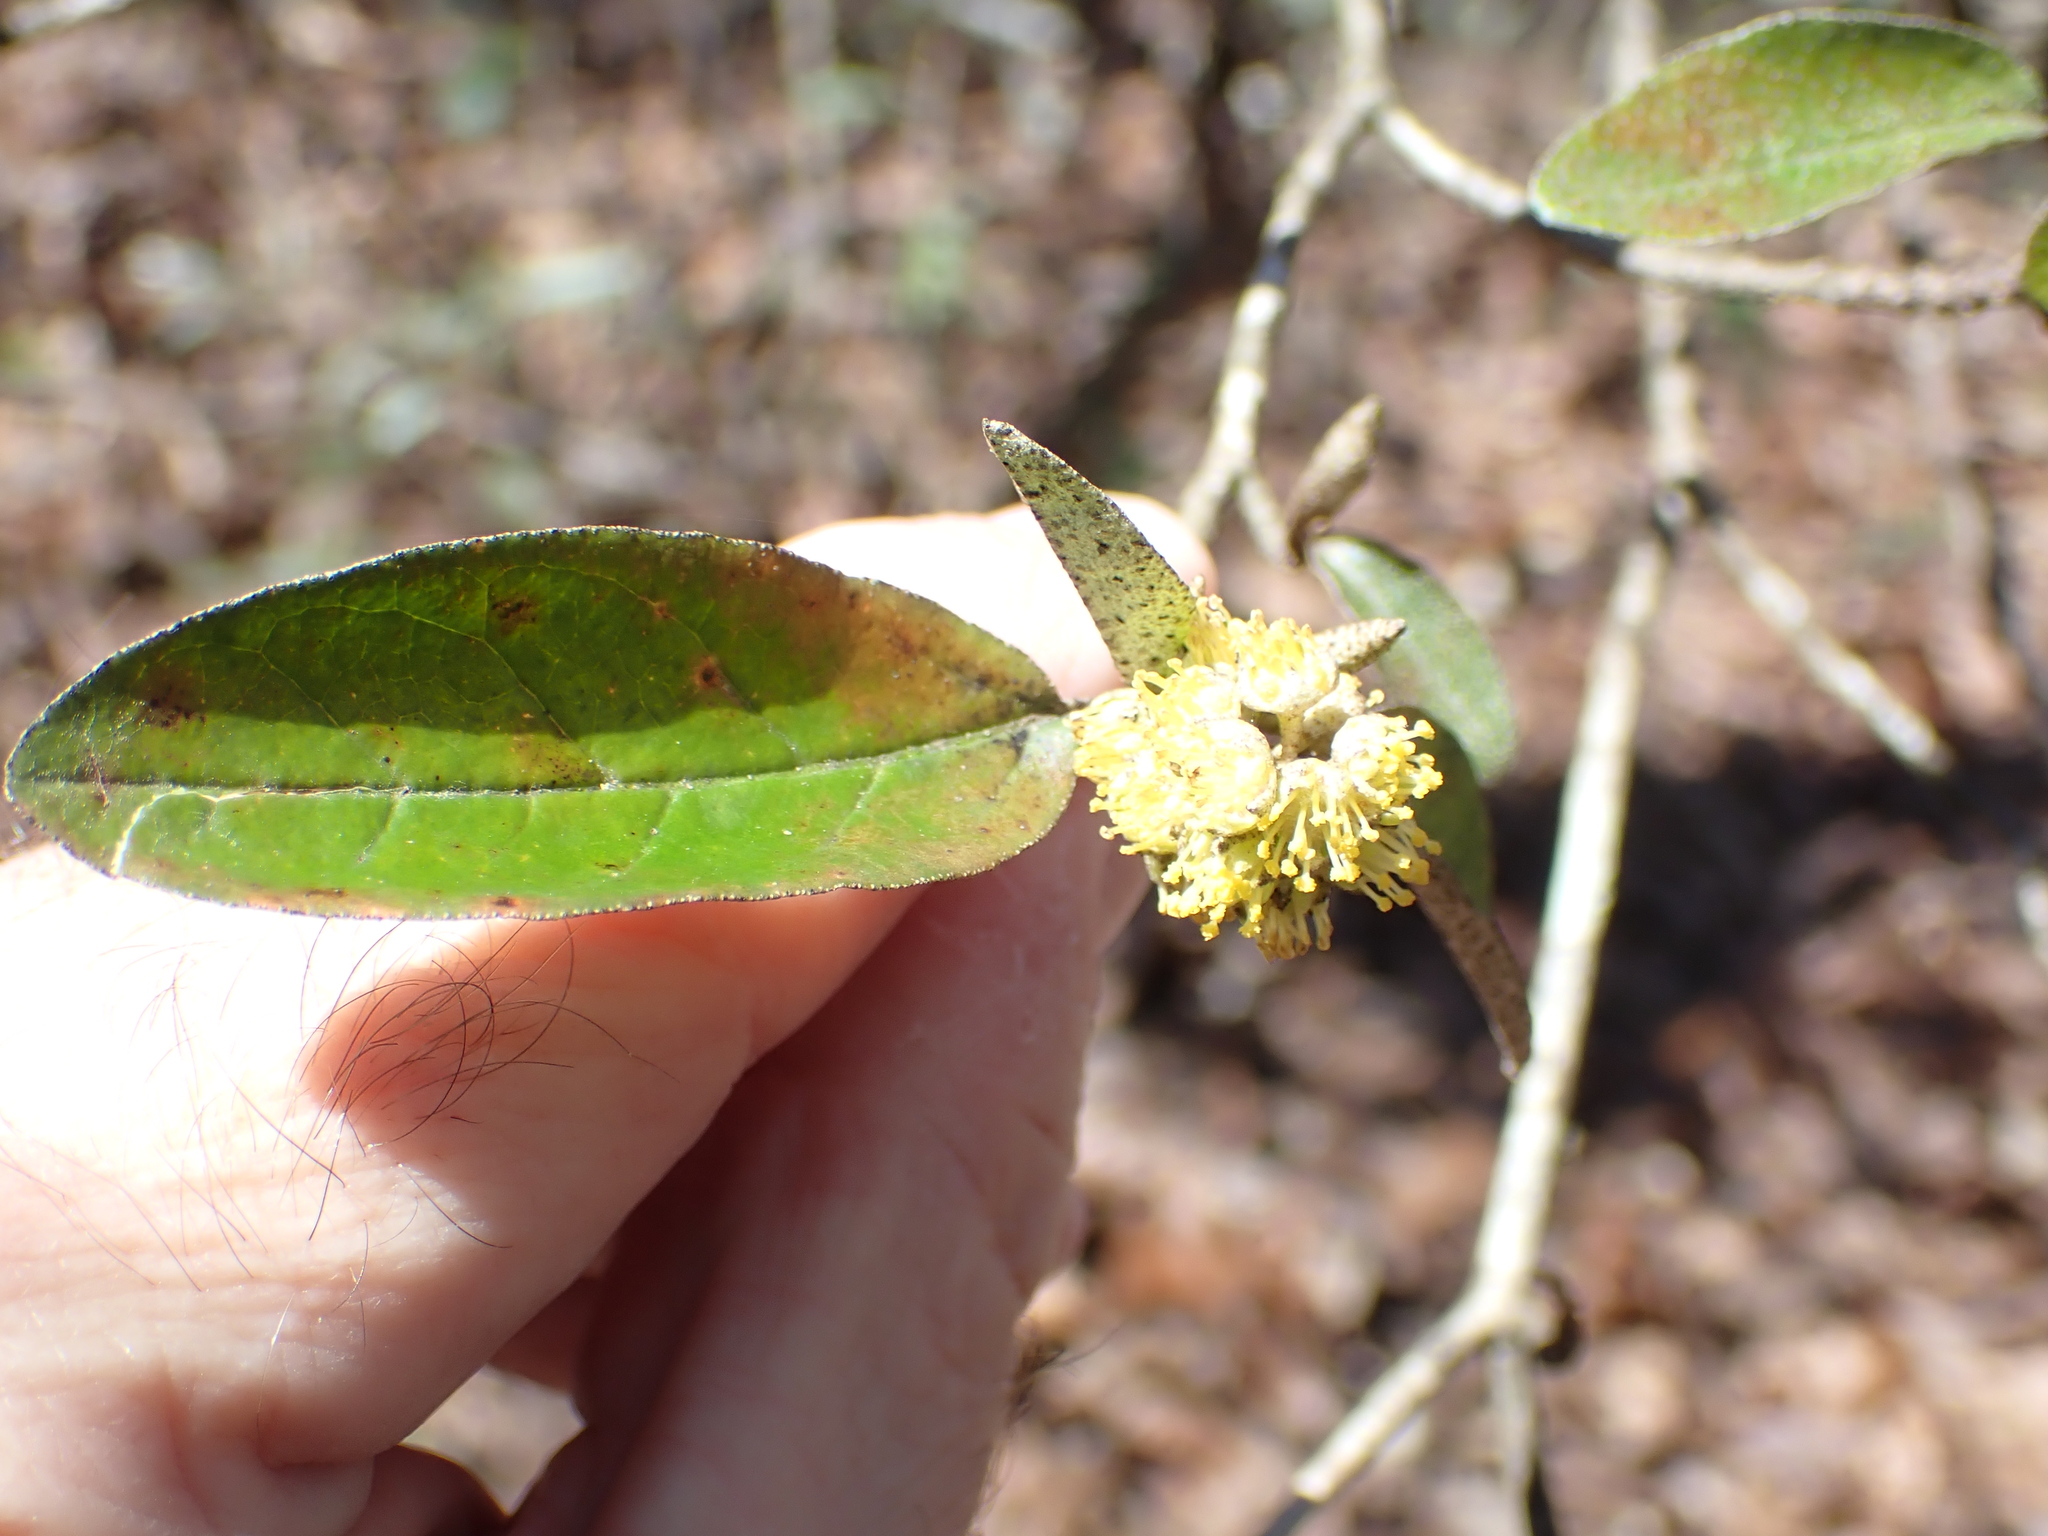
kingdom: Plantae
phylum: Tracheophyta
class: Magnoliopsida
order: Malpighiales
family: Euphorbiaceae
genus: Croton
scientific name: Croton alabamensis
